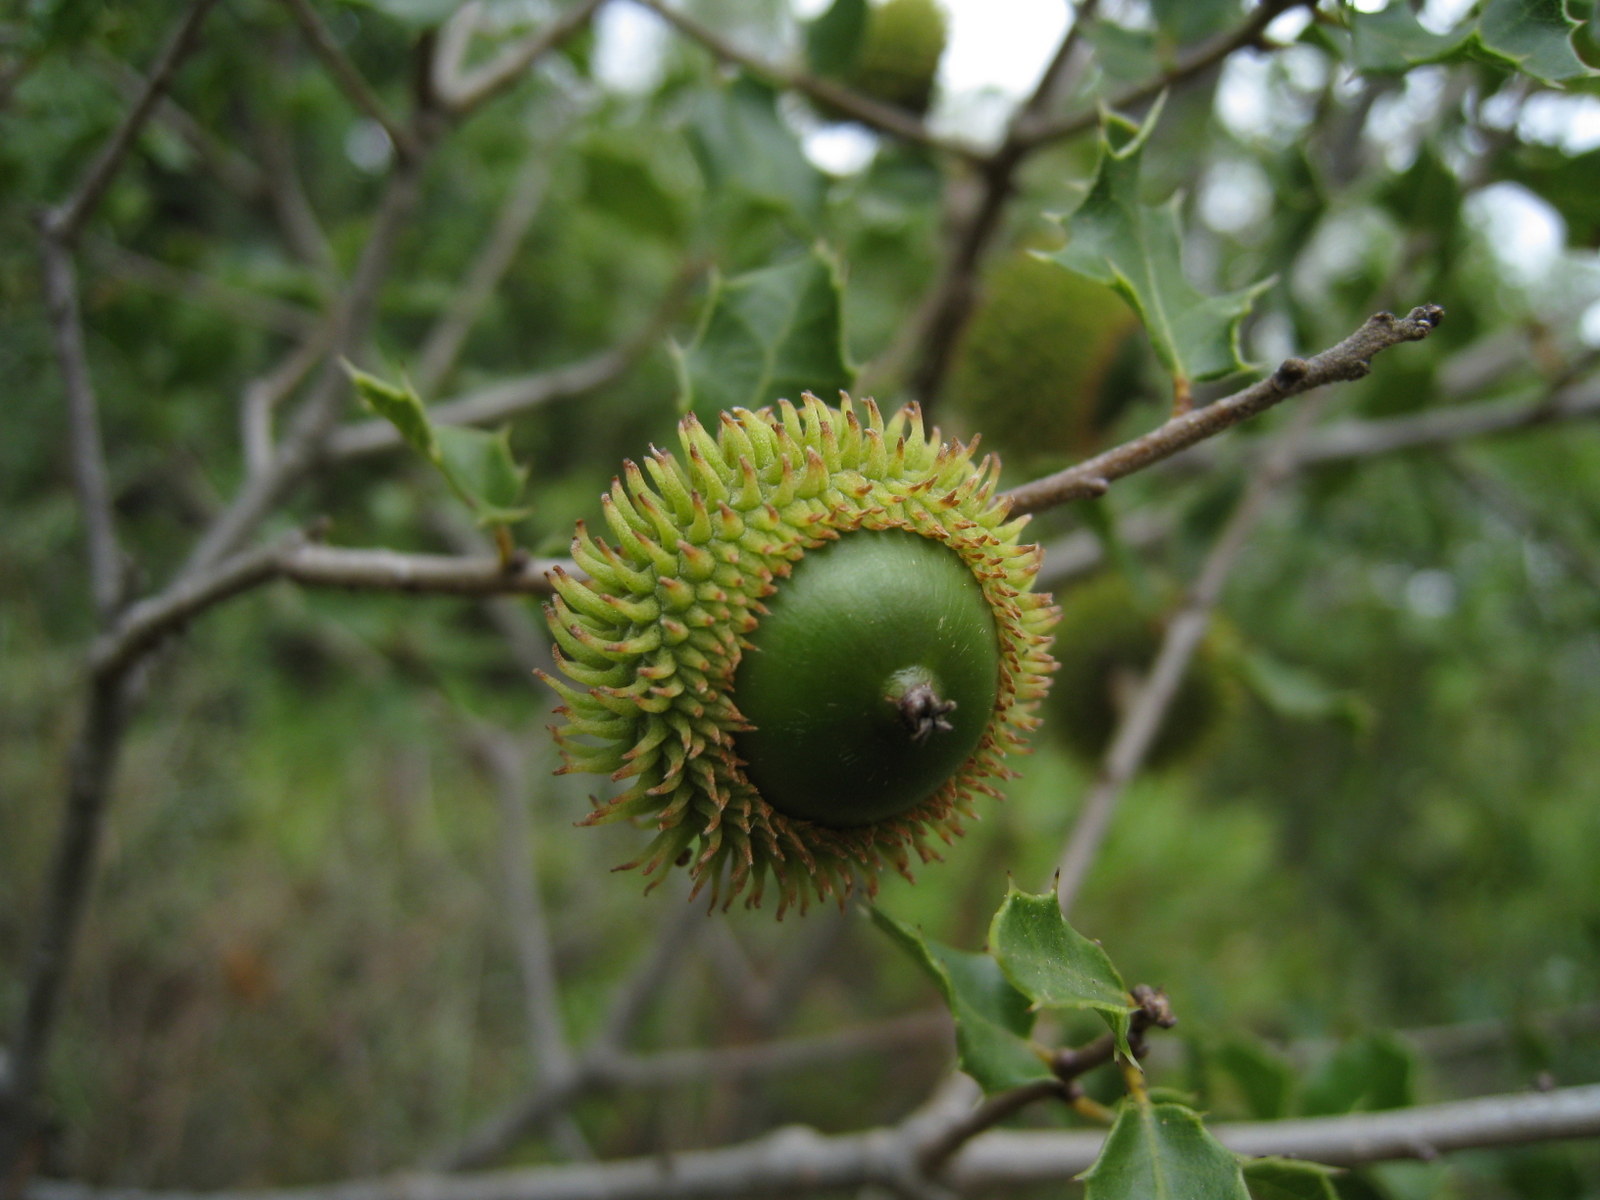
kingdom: Plantae
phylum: Tracheophyta
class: Magnoliopsida
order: Fagales
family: Fagaceae
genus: Quercus
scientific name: Quercus coccifera
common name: Kermes oak
